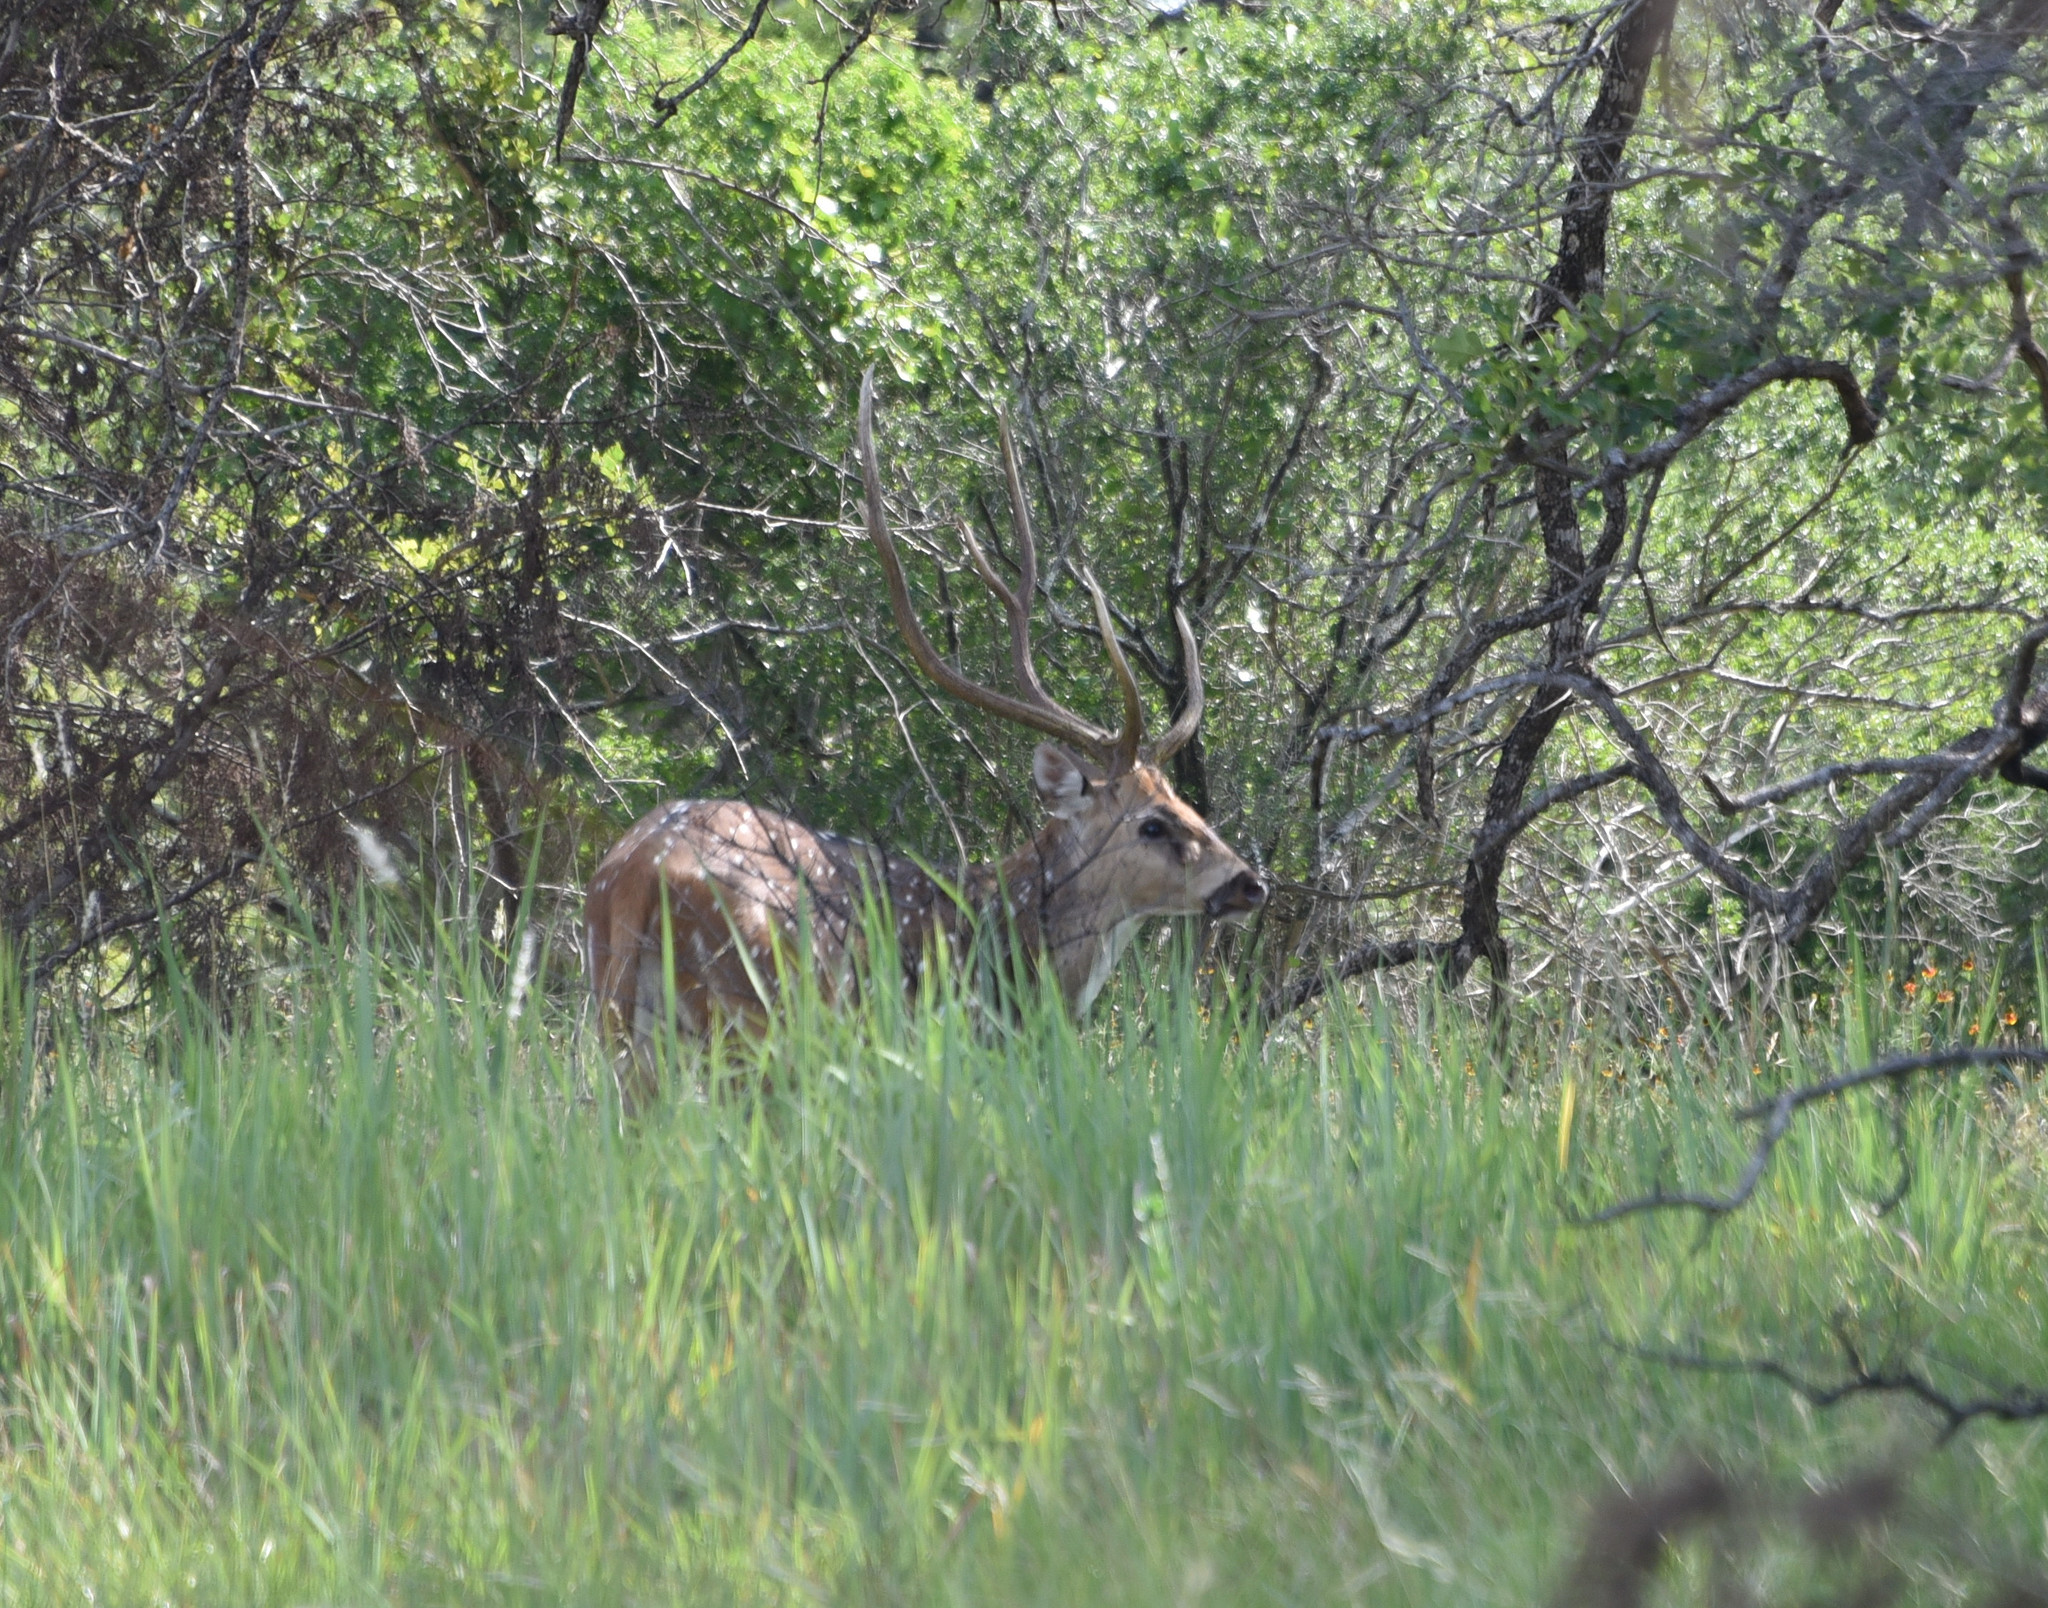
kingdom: Animalia
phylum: Chordata
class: Mammalia
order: Artiodactyla
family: Cervidae
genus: Axis
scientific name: Axis axis
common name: Chital
